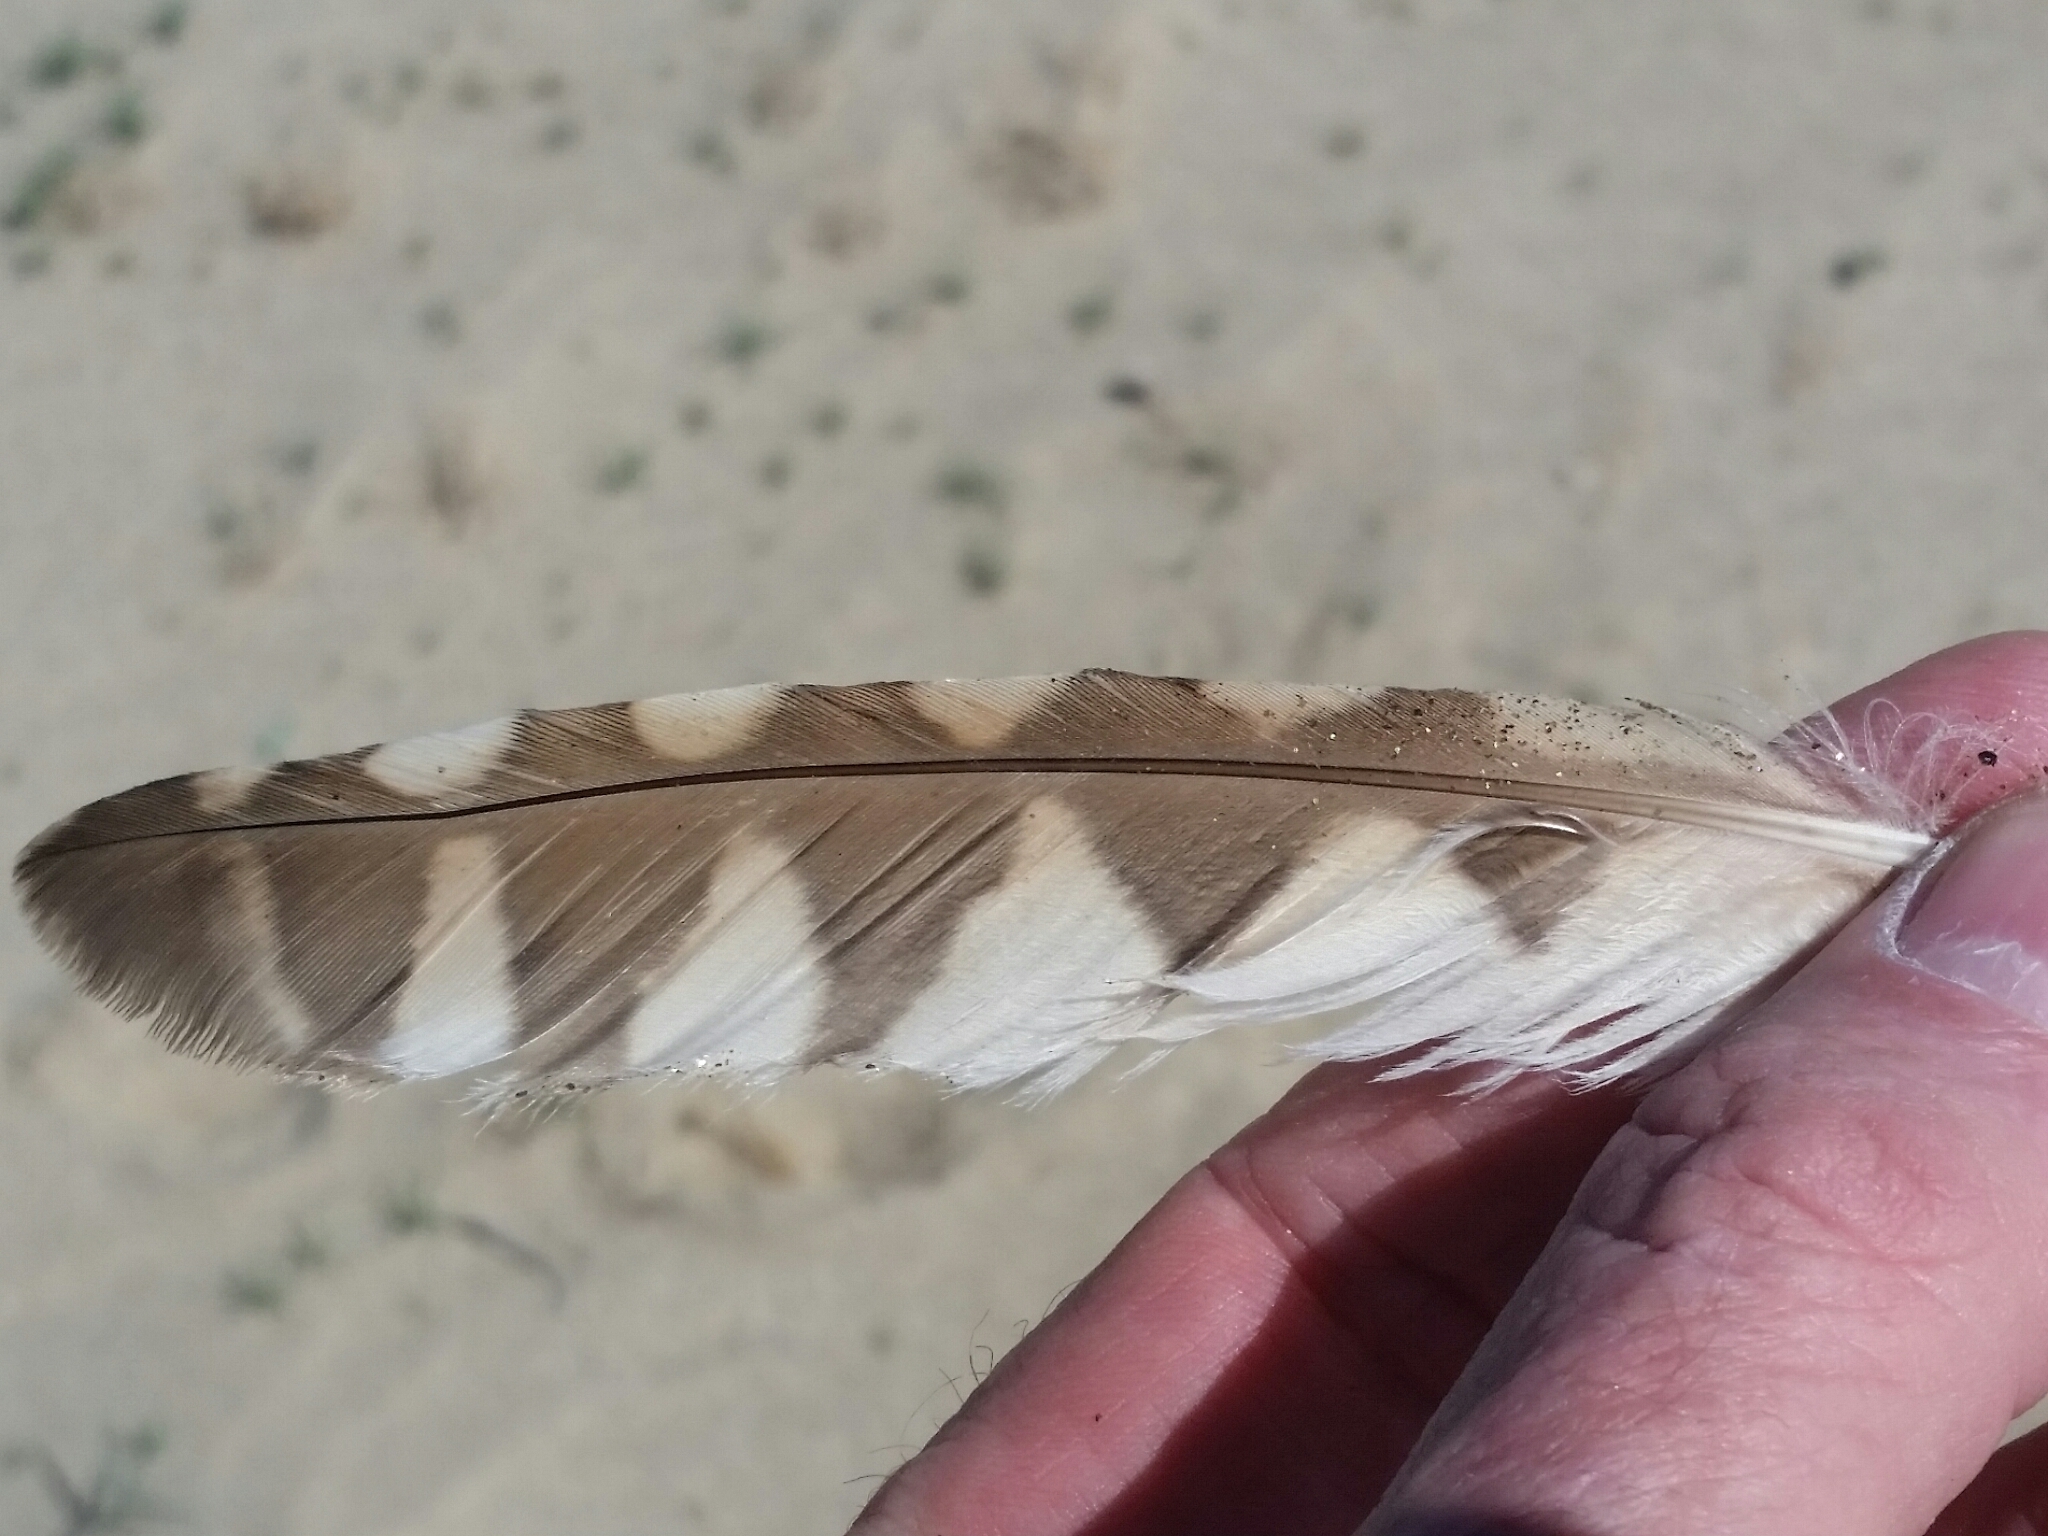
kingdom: Animalia
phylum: Chordata
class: Aves
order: Strigiformes
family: Strigidae
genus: Athene
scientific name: Athene cunicularia
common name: Burrowing owl
